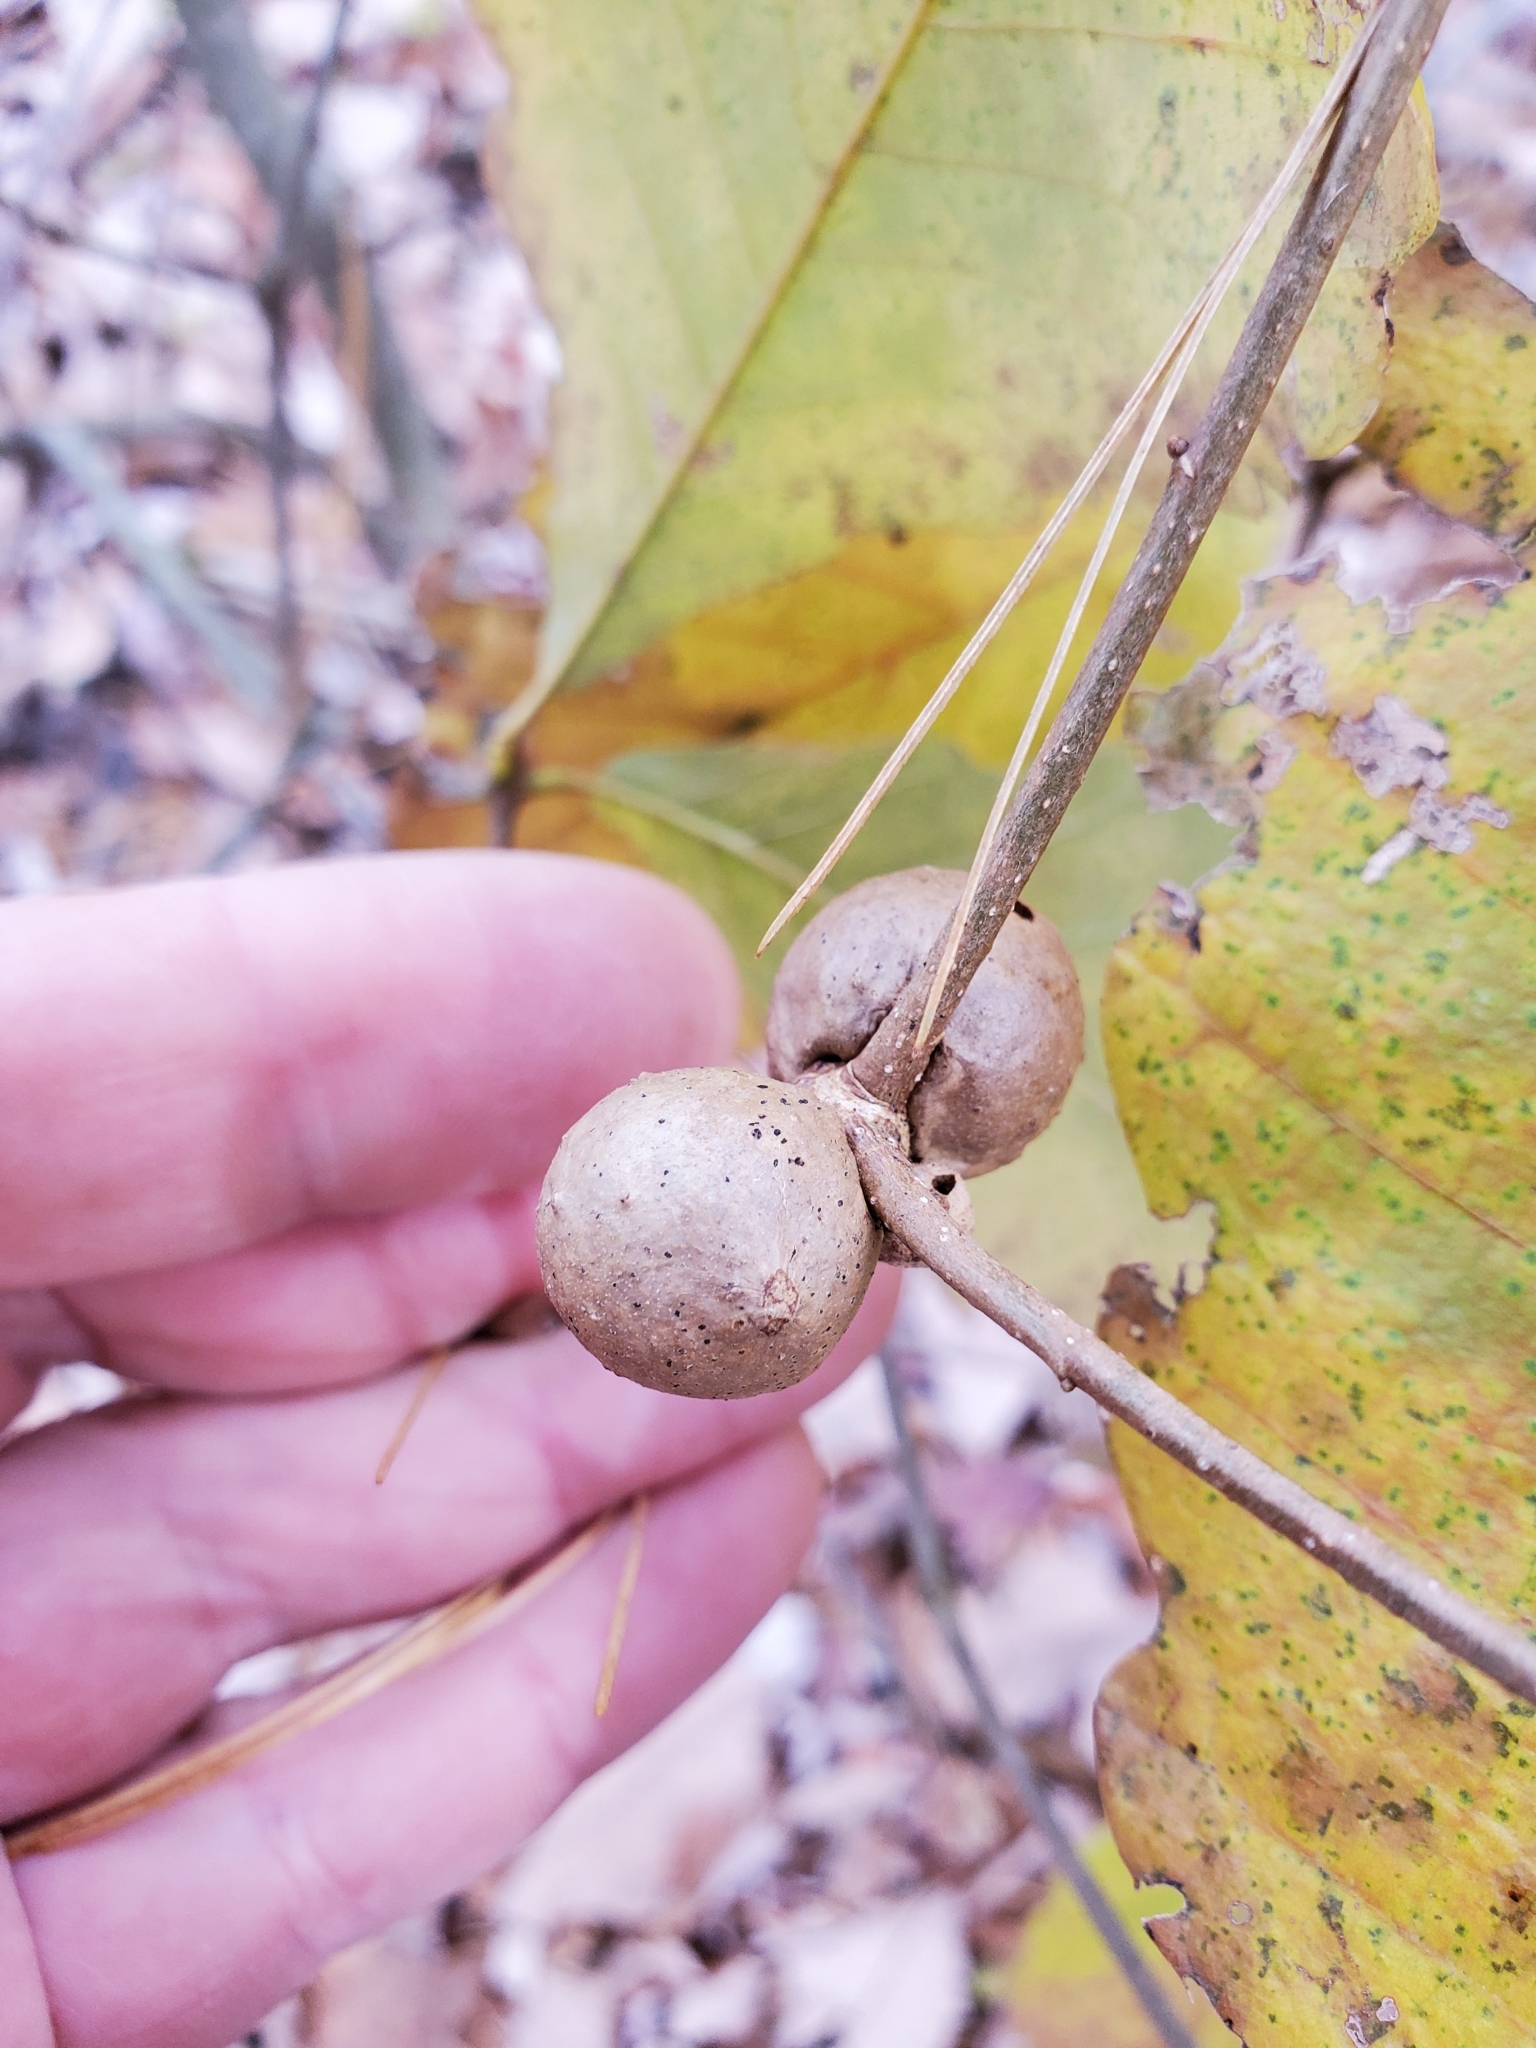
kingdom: Animalia
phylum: Arthropoda
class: Insecta
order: Hymenoptera
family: Cynipidae
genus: Disholcaspis
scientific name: Disholcaspis quercusglobulus
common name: Round bullet gall wasp
